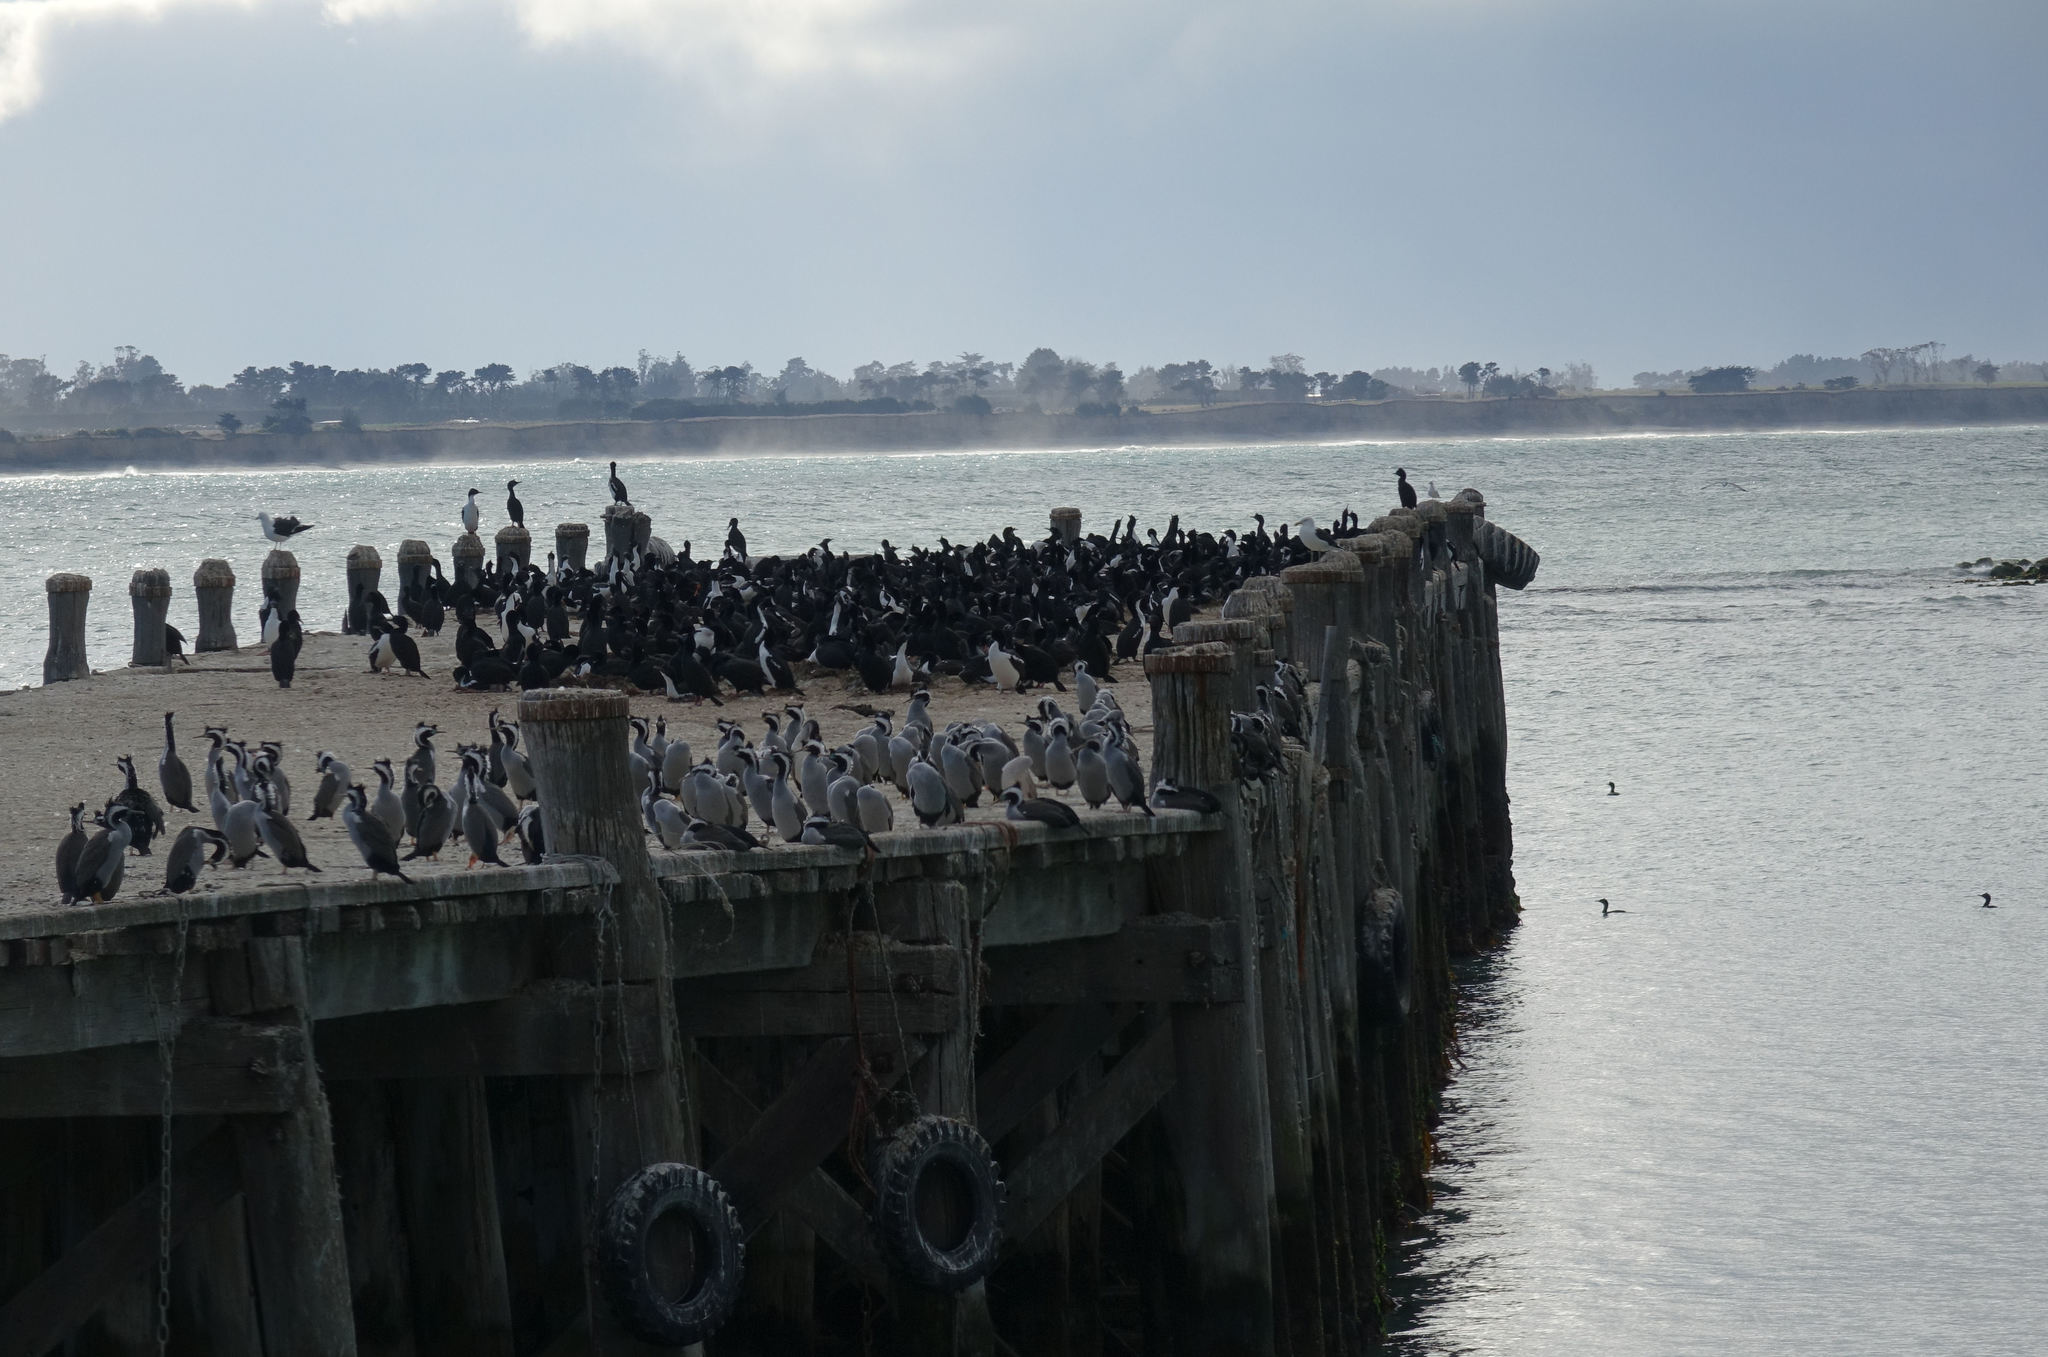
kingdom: Animalia
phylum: Chordata
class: Aves
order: Suliformes
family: Phalacrocoracidae
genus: Phalacrocorax
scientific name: Phalacrocorax punctatus
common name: Spotted shag
